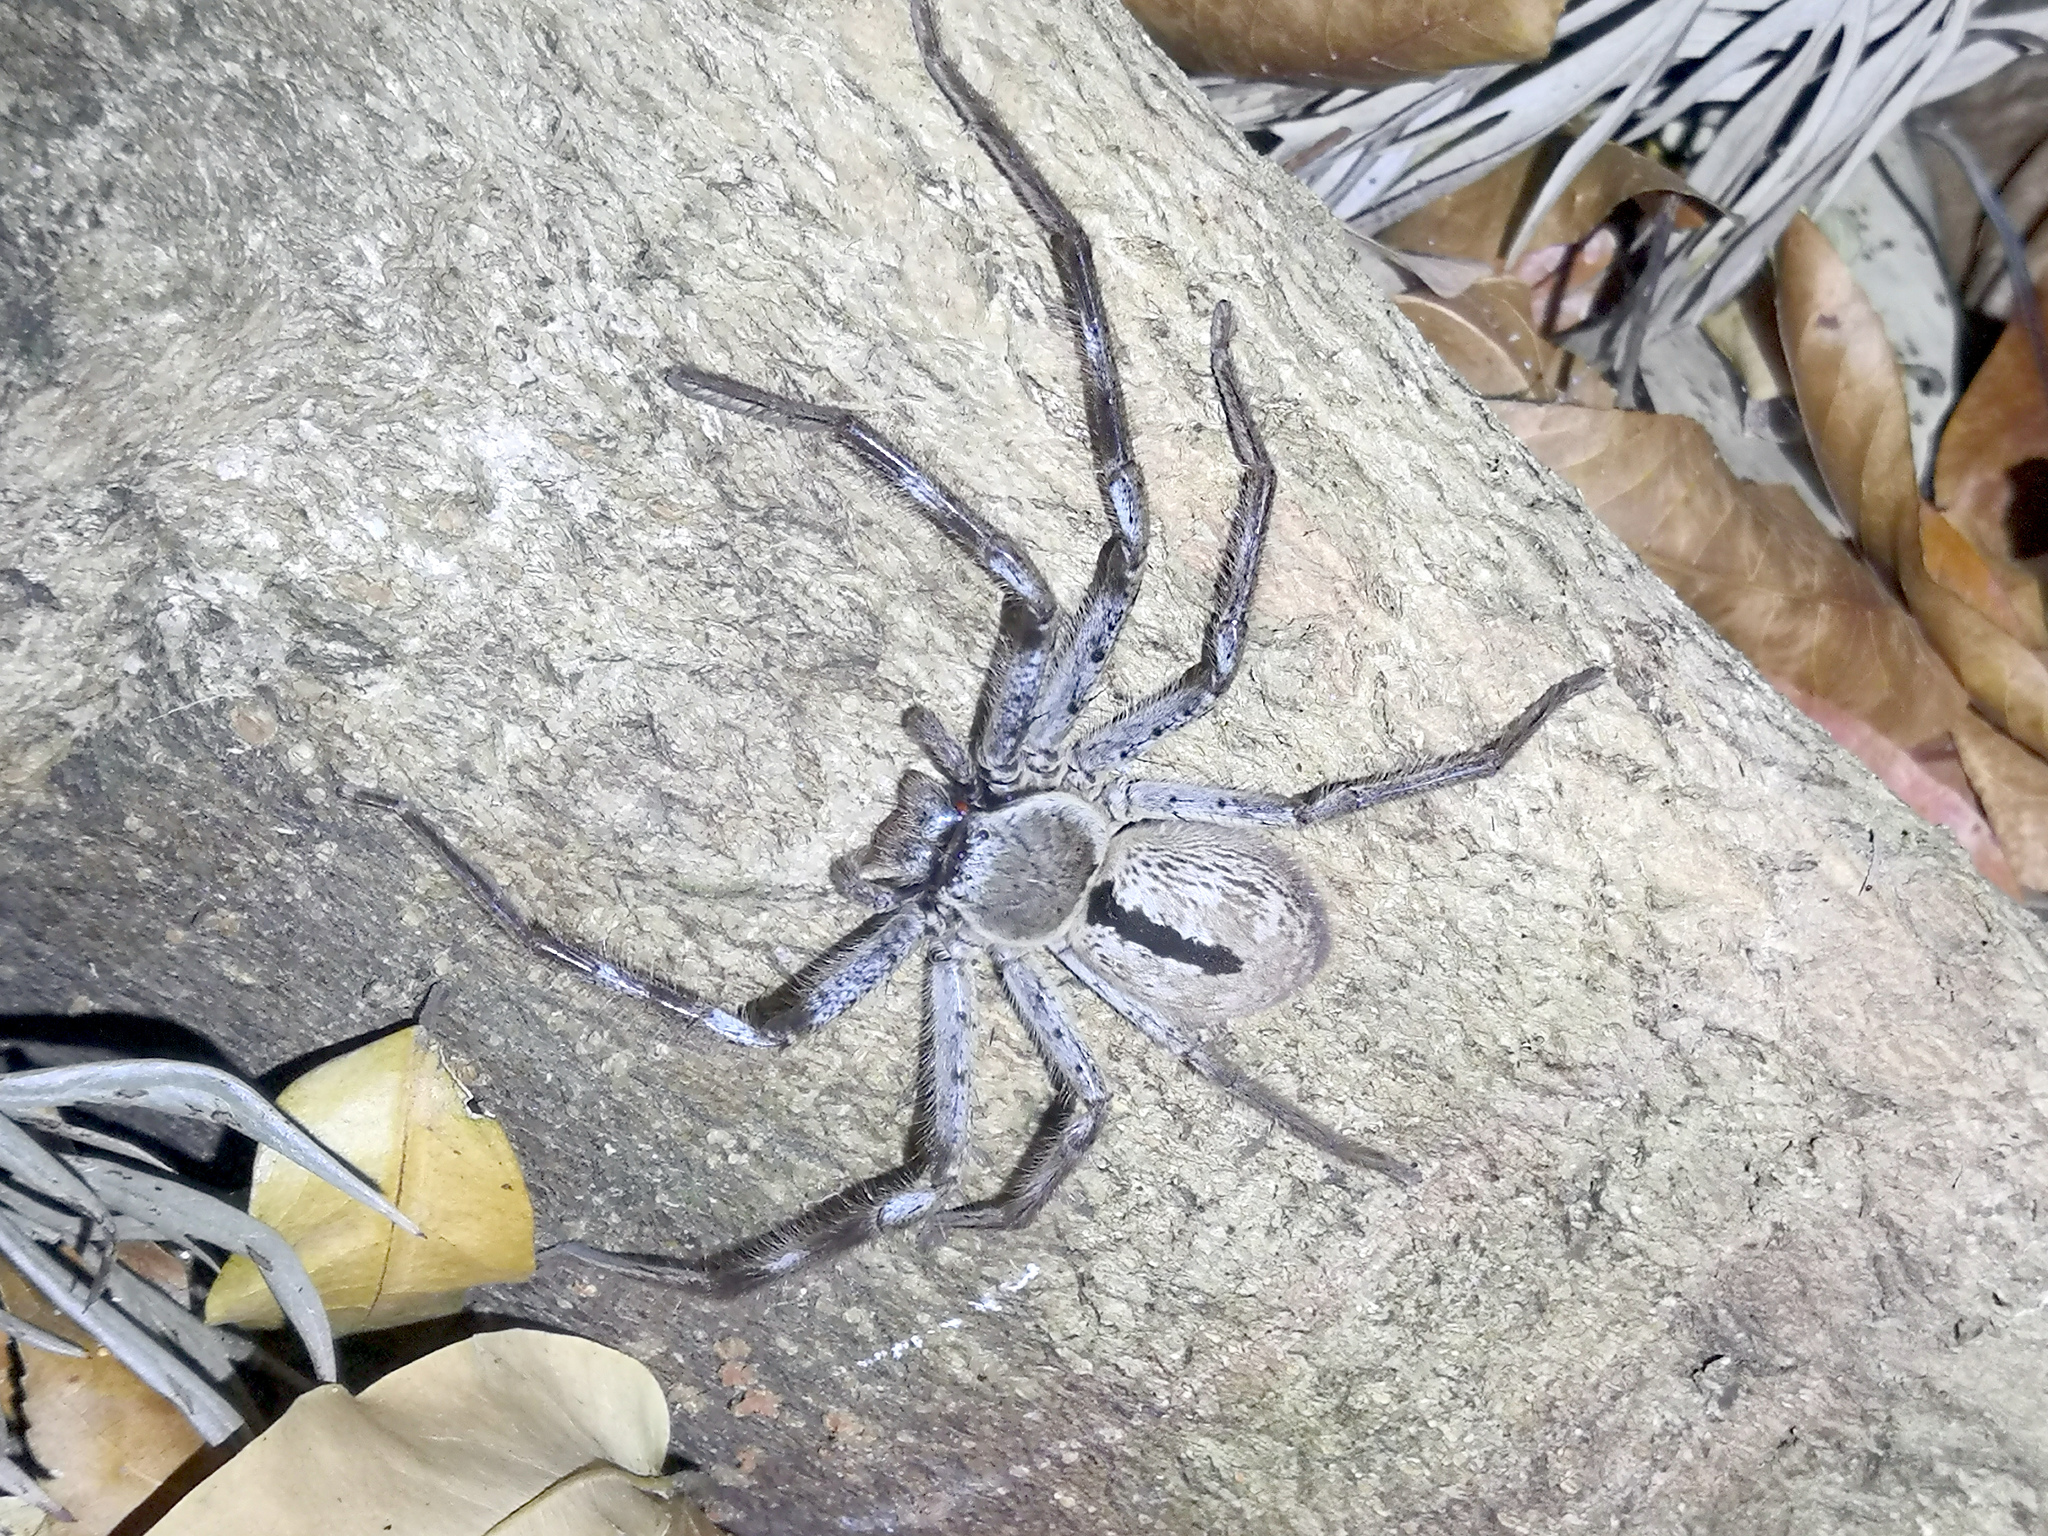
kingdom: Animalia
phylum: Arthropoda
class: Arachnida
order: Araneae
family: Sparassidae
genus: Holconia
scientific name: Holconia immanis
